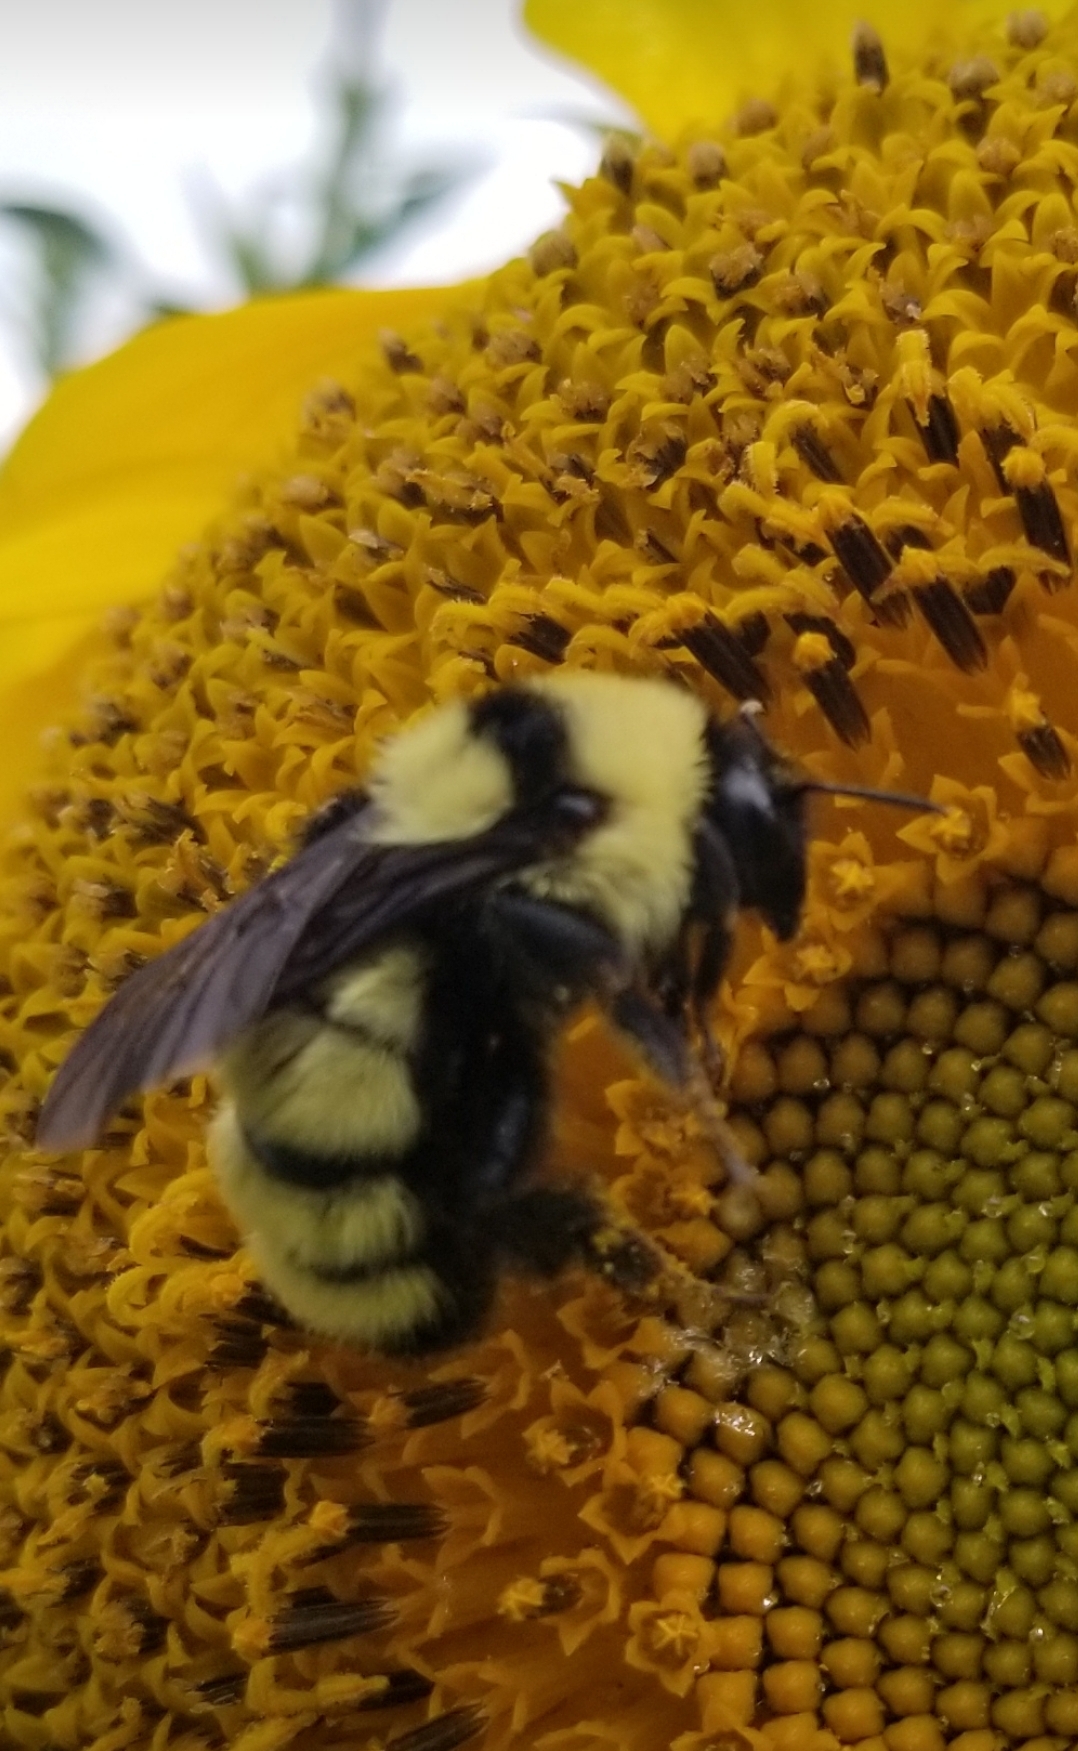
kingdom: Animalia
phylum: Arthropoda
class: Insecta
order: Hymenoptera
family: Apidae
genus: Bombus
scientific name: Bombus fervidus
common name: Yellow bumble bee
